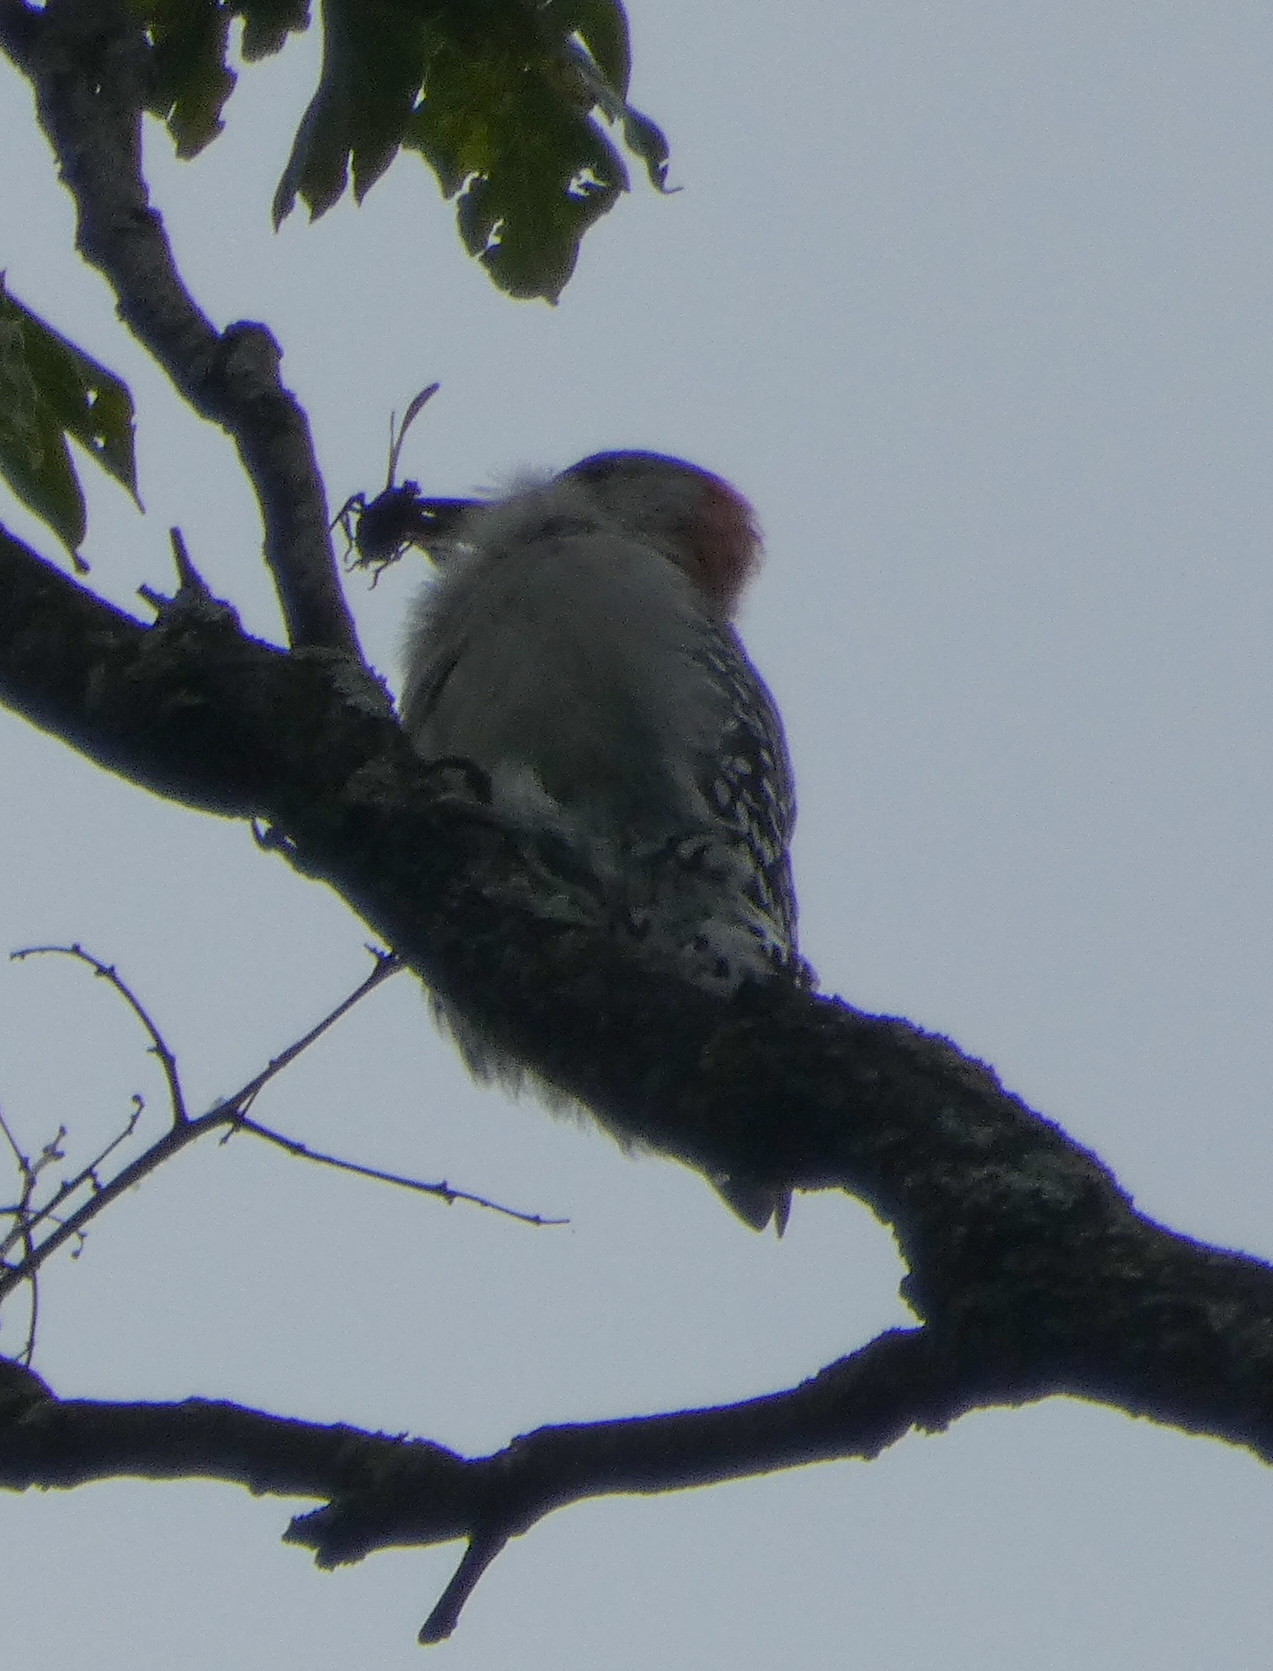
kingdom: Animalia
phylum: Chordata
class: Aves
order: Piciformes
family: Picidae
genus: Melanerpes
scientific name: Melanerpes carolinus
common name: Red-bellied woodpecker
